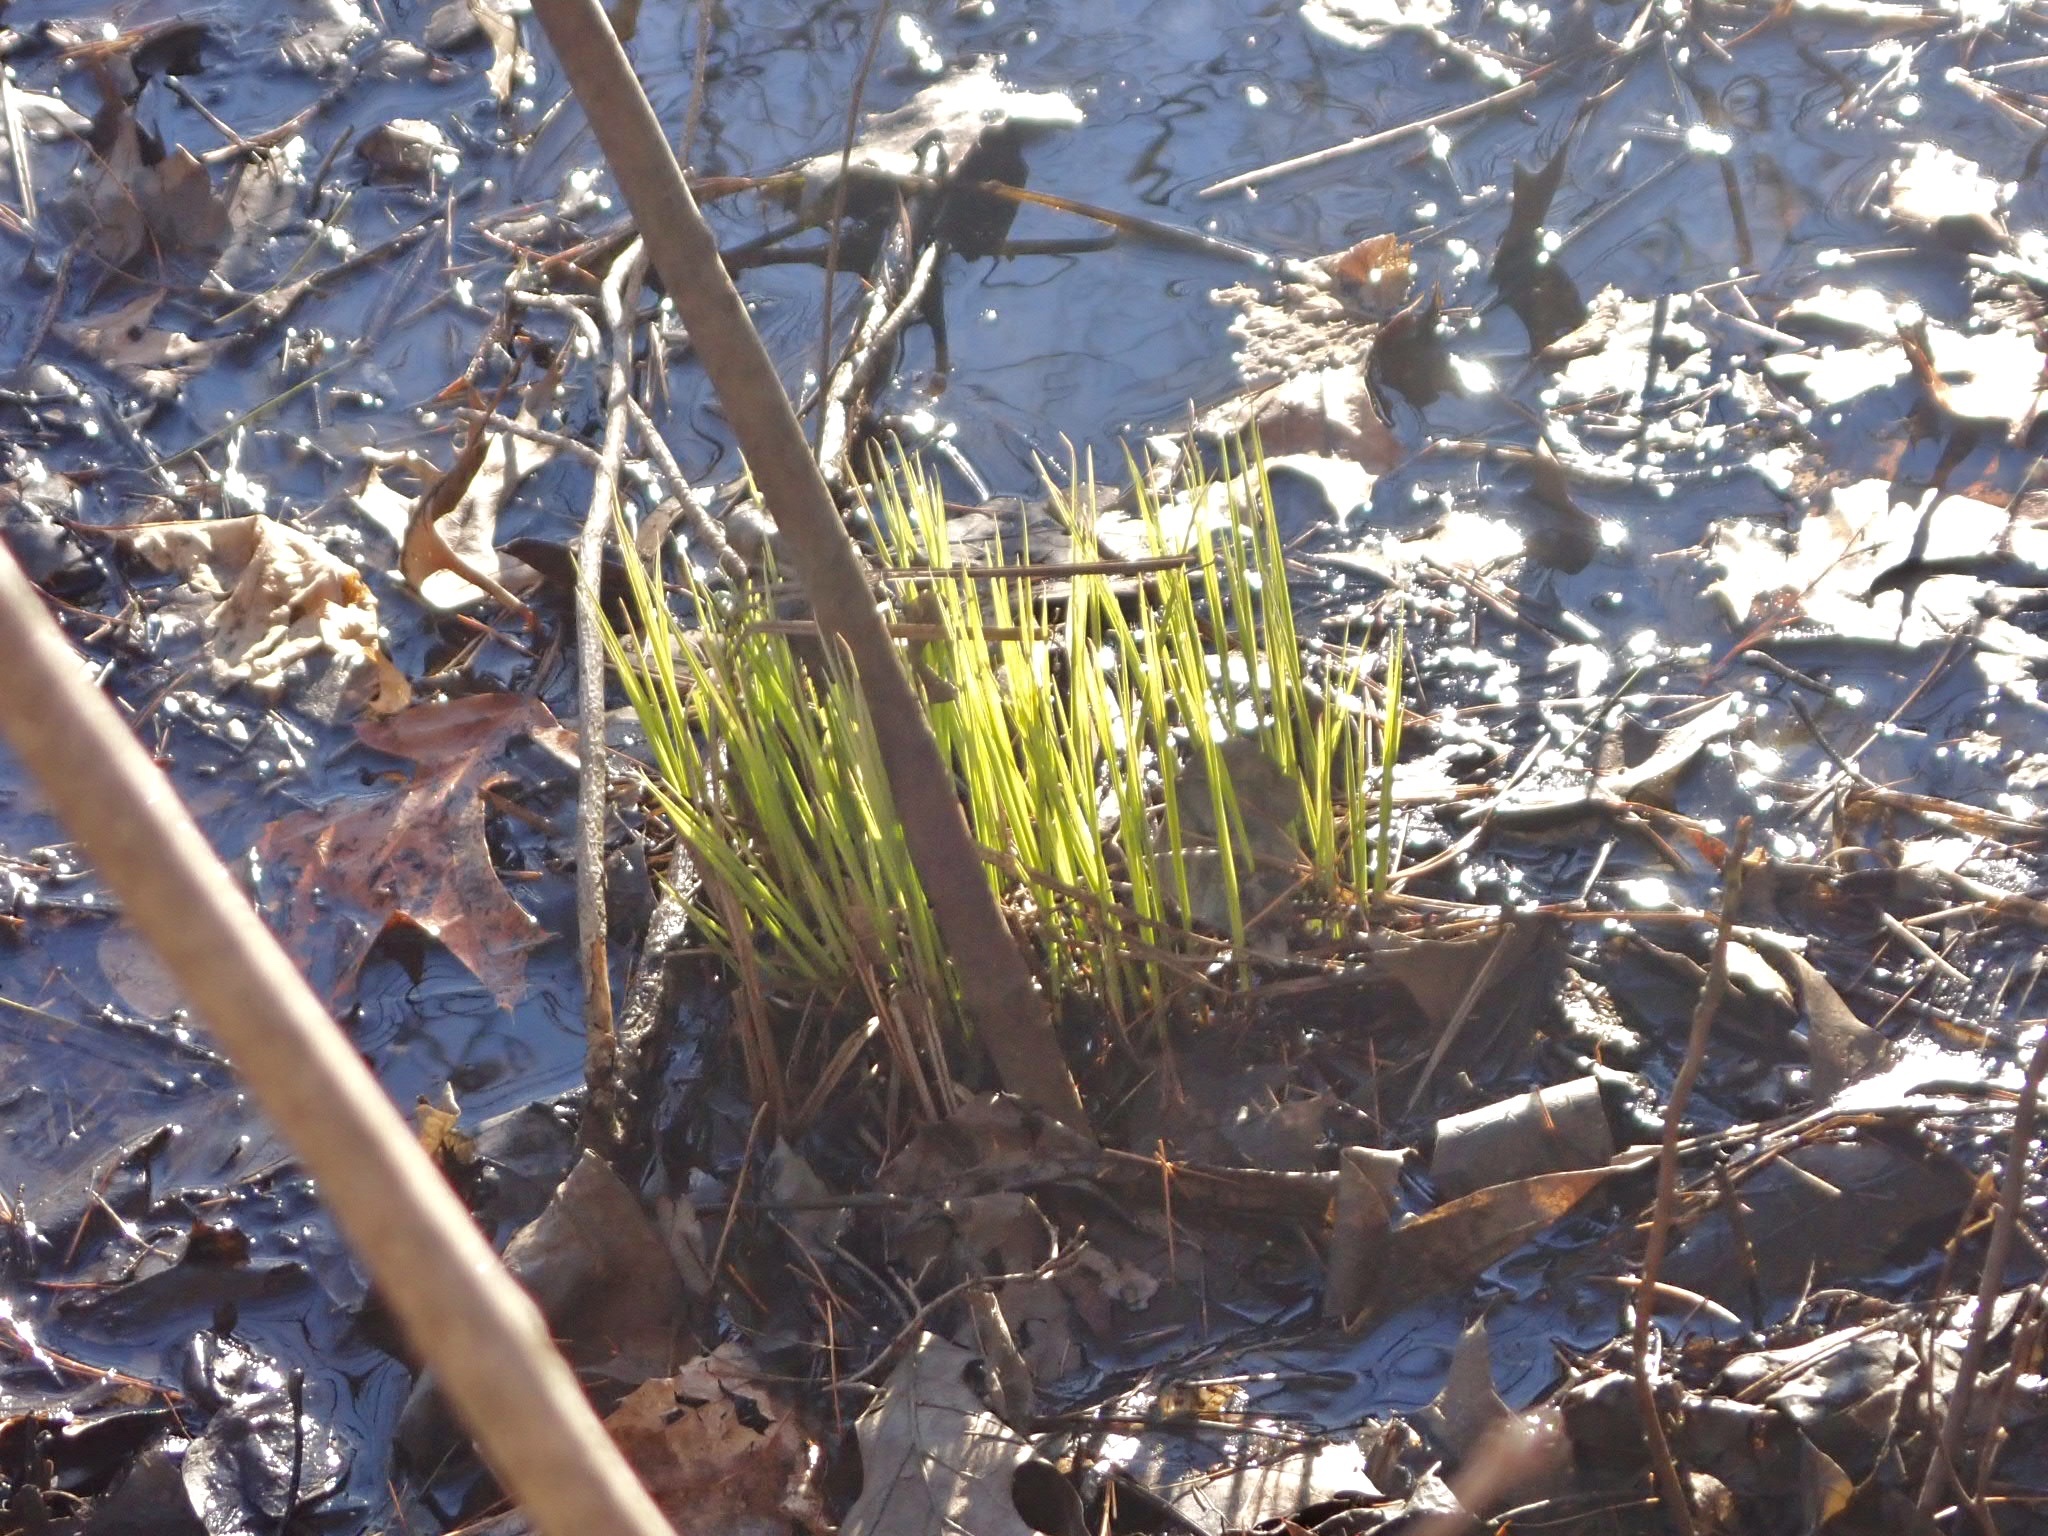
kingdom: Plantae
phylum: Tracheophyta
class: Liliopsida
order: Poales
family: Cyperaceae
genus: Carex
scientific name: Carex stricta
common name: Hummock sedge
